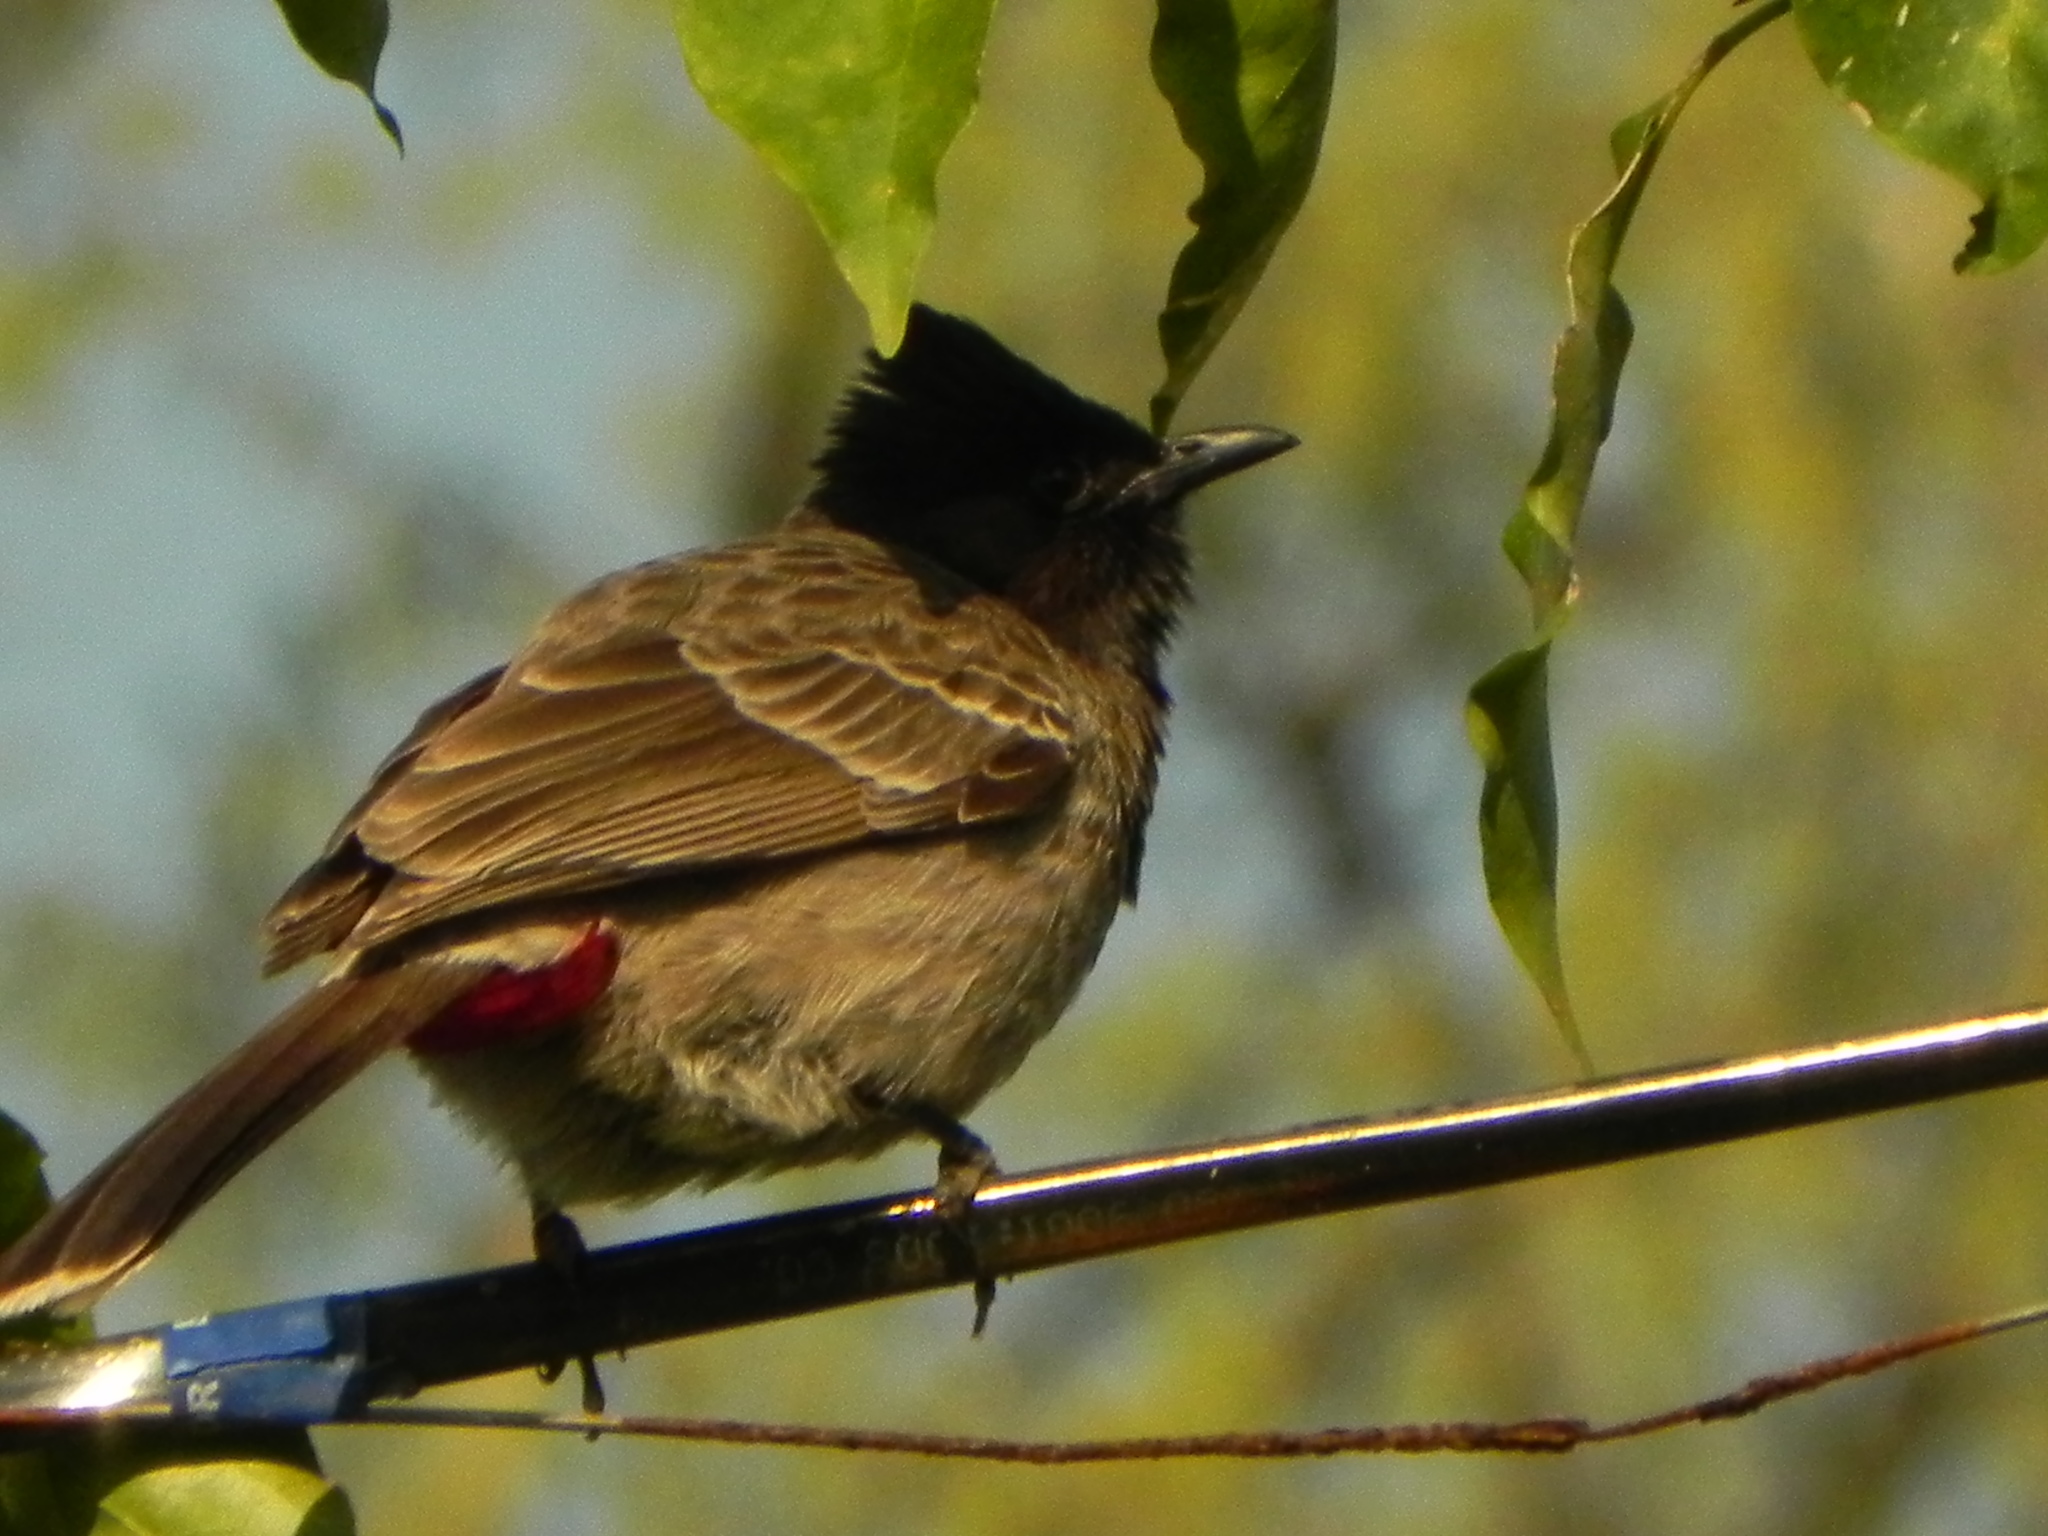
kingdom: Animalia
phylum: Chordata
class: Aves
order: Passeriformes
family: Pycnonotidae
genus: Pycnonotus
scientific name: Pycnonotus cafer
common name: Red-vented bulbul
